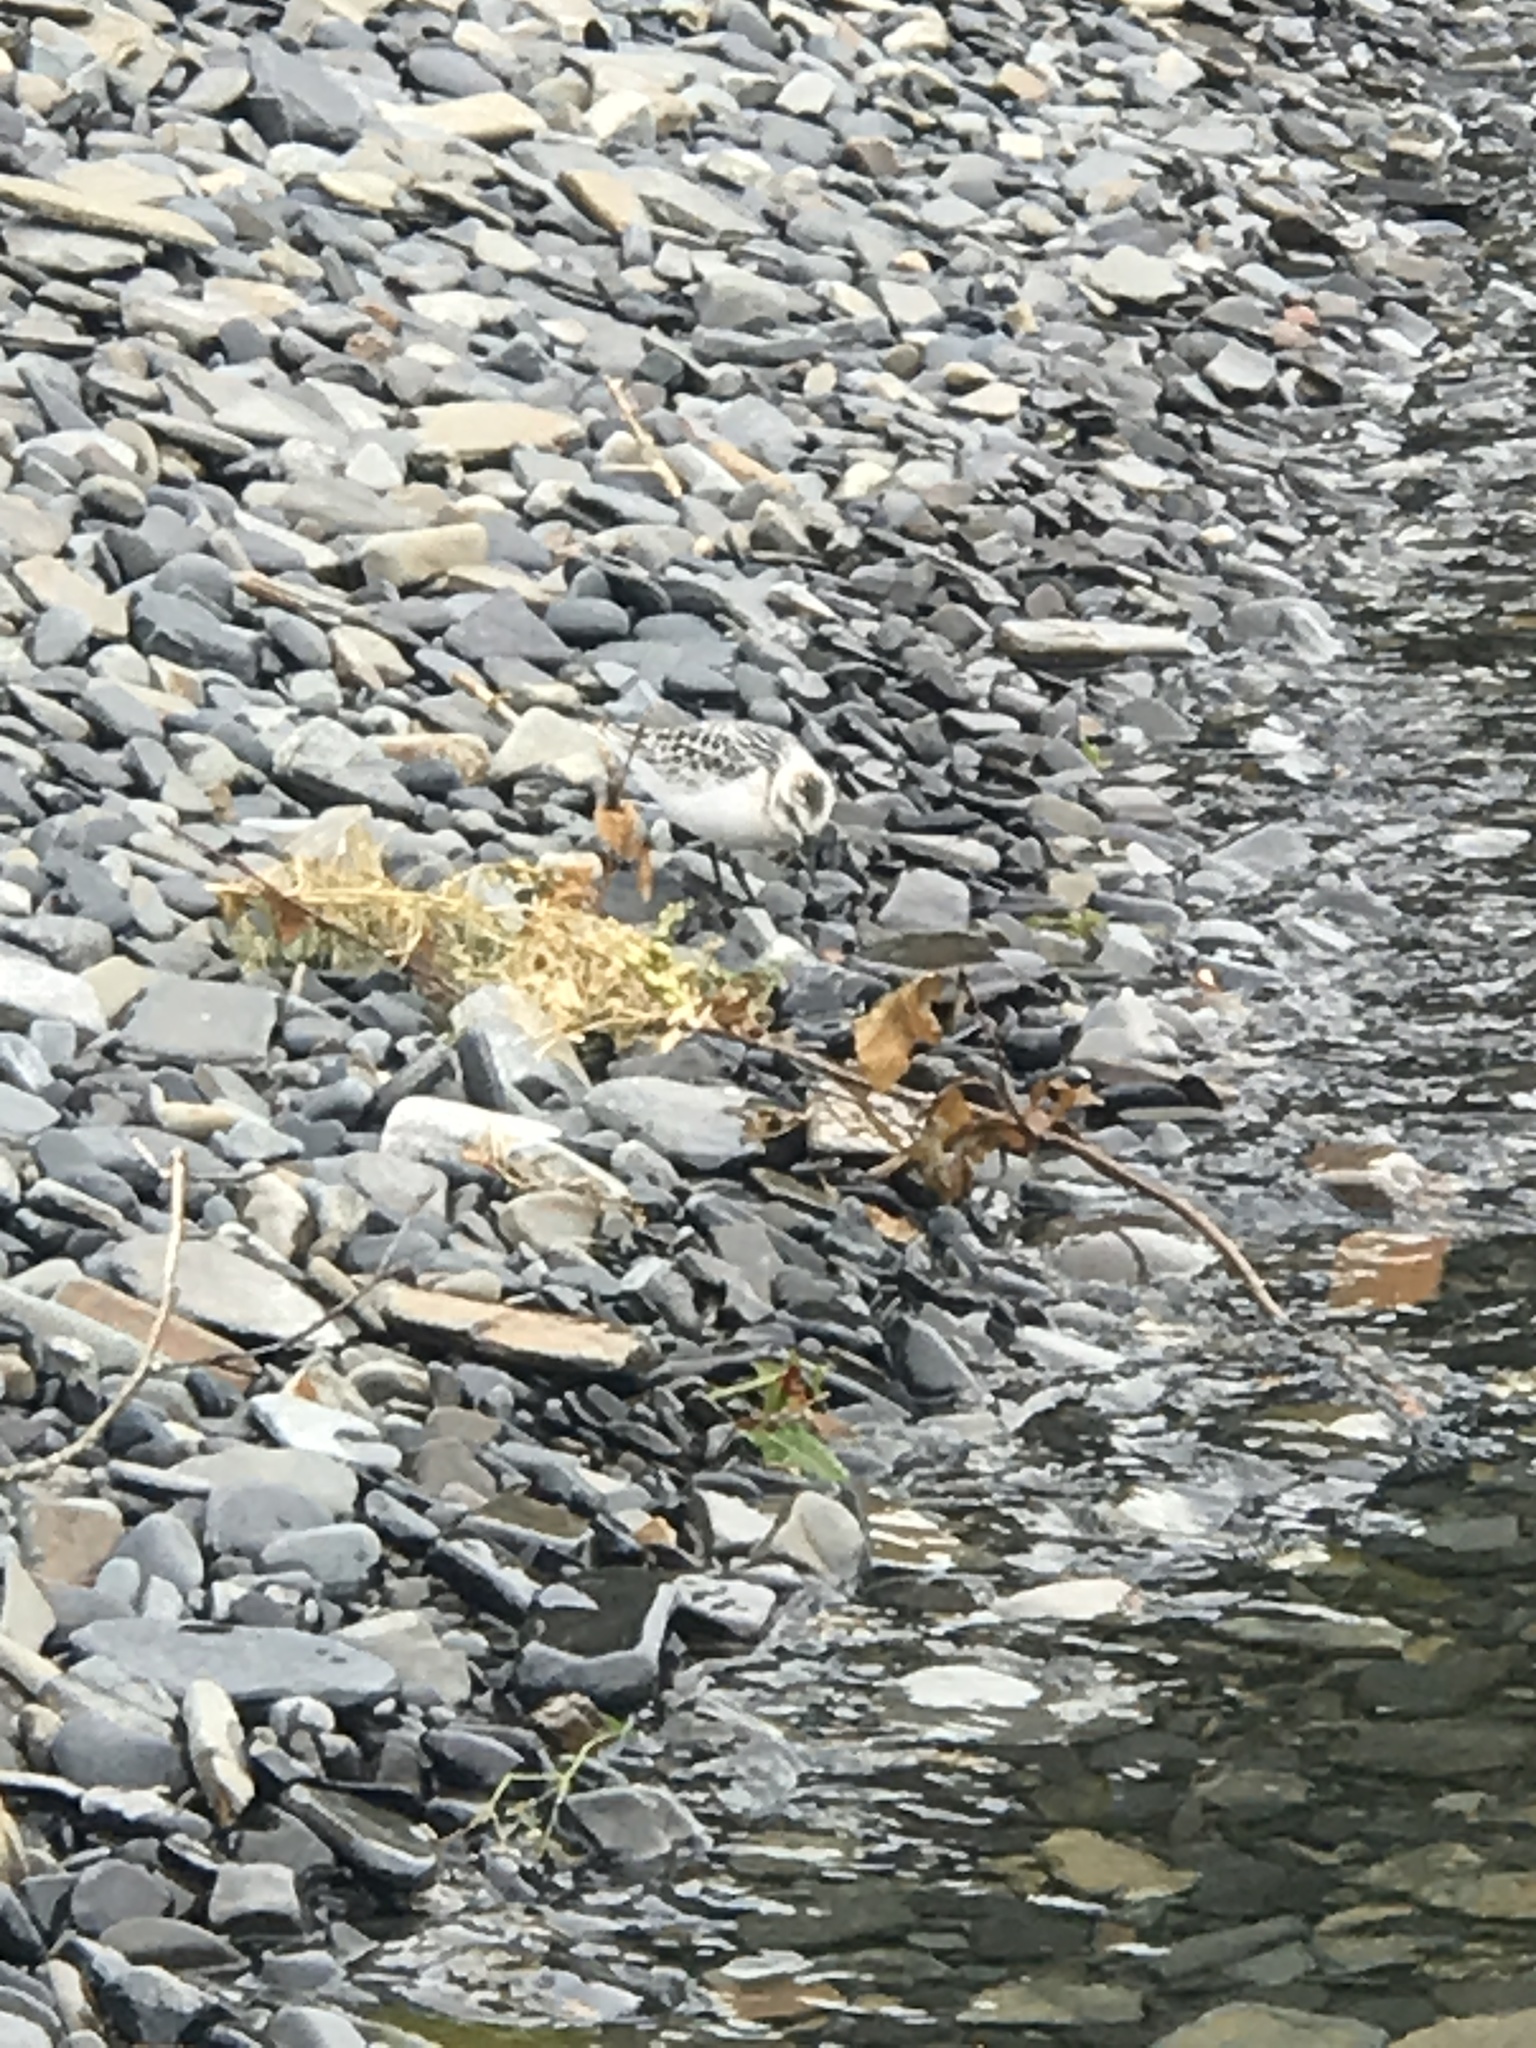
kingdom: Animalia
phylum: Chordata
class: Aves
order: Charadriiformes
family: Scolopacidae
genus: Calidris
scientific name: Calidris alba
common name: Sanderling
